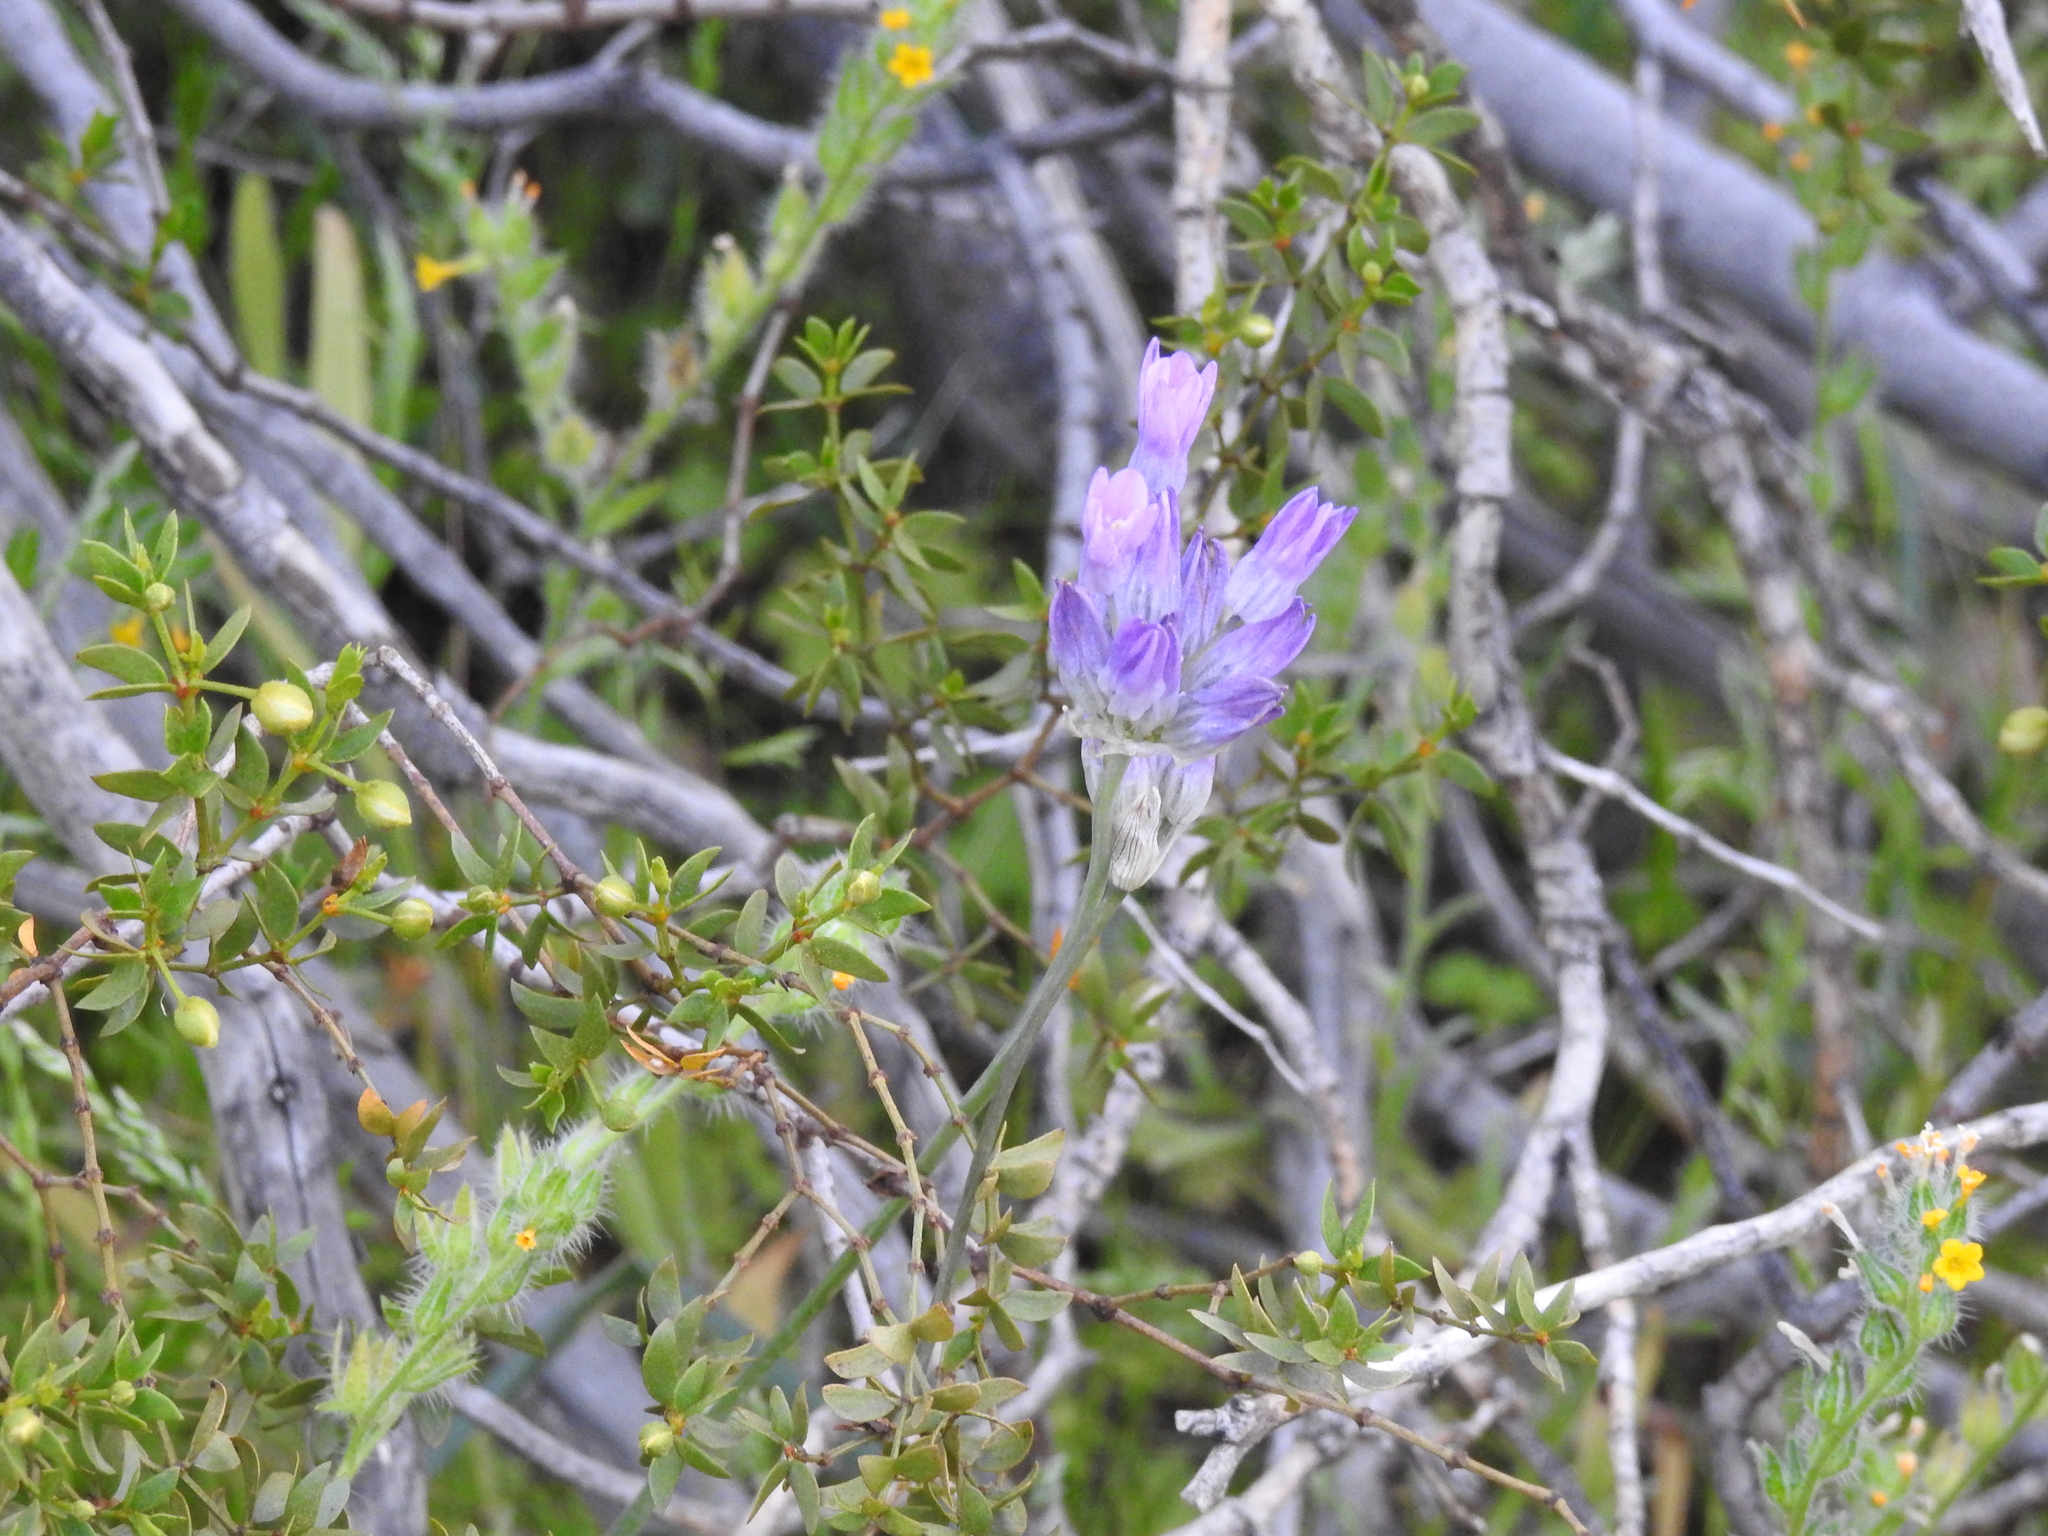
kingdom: Plantae
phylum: Tracheophyta
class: Liliopsida
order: Asparagales
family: Asparagaceae
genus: Dipterostemon
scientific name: Dipterostemon capitatus
